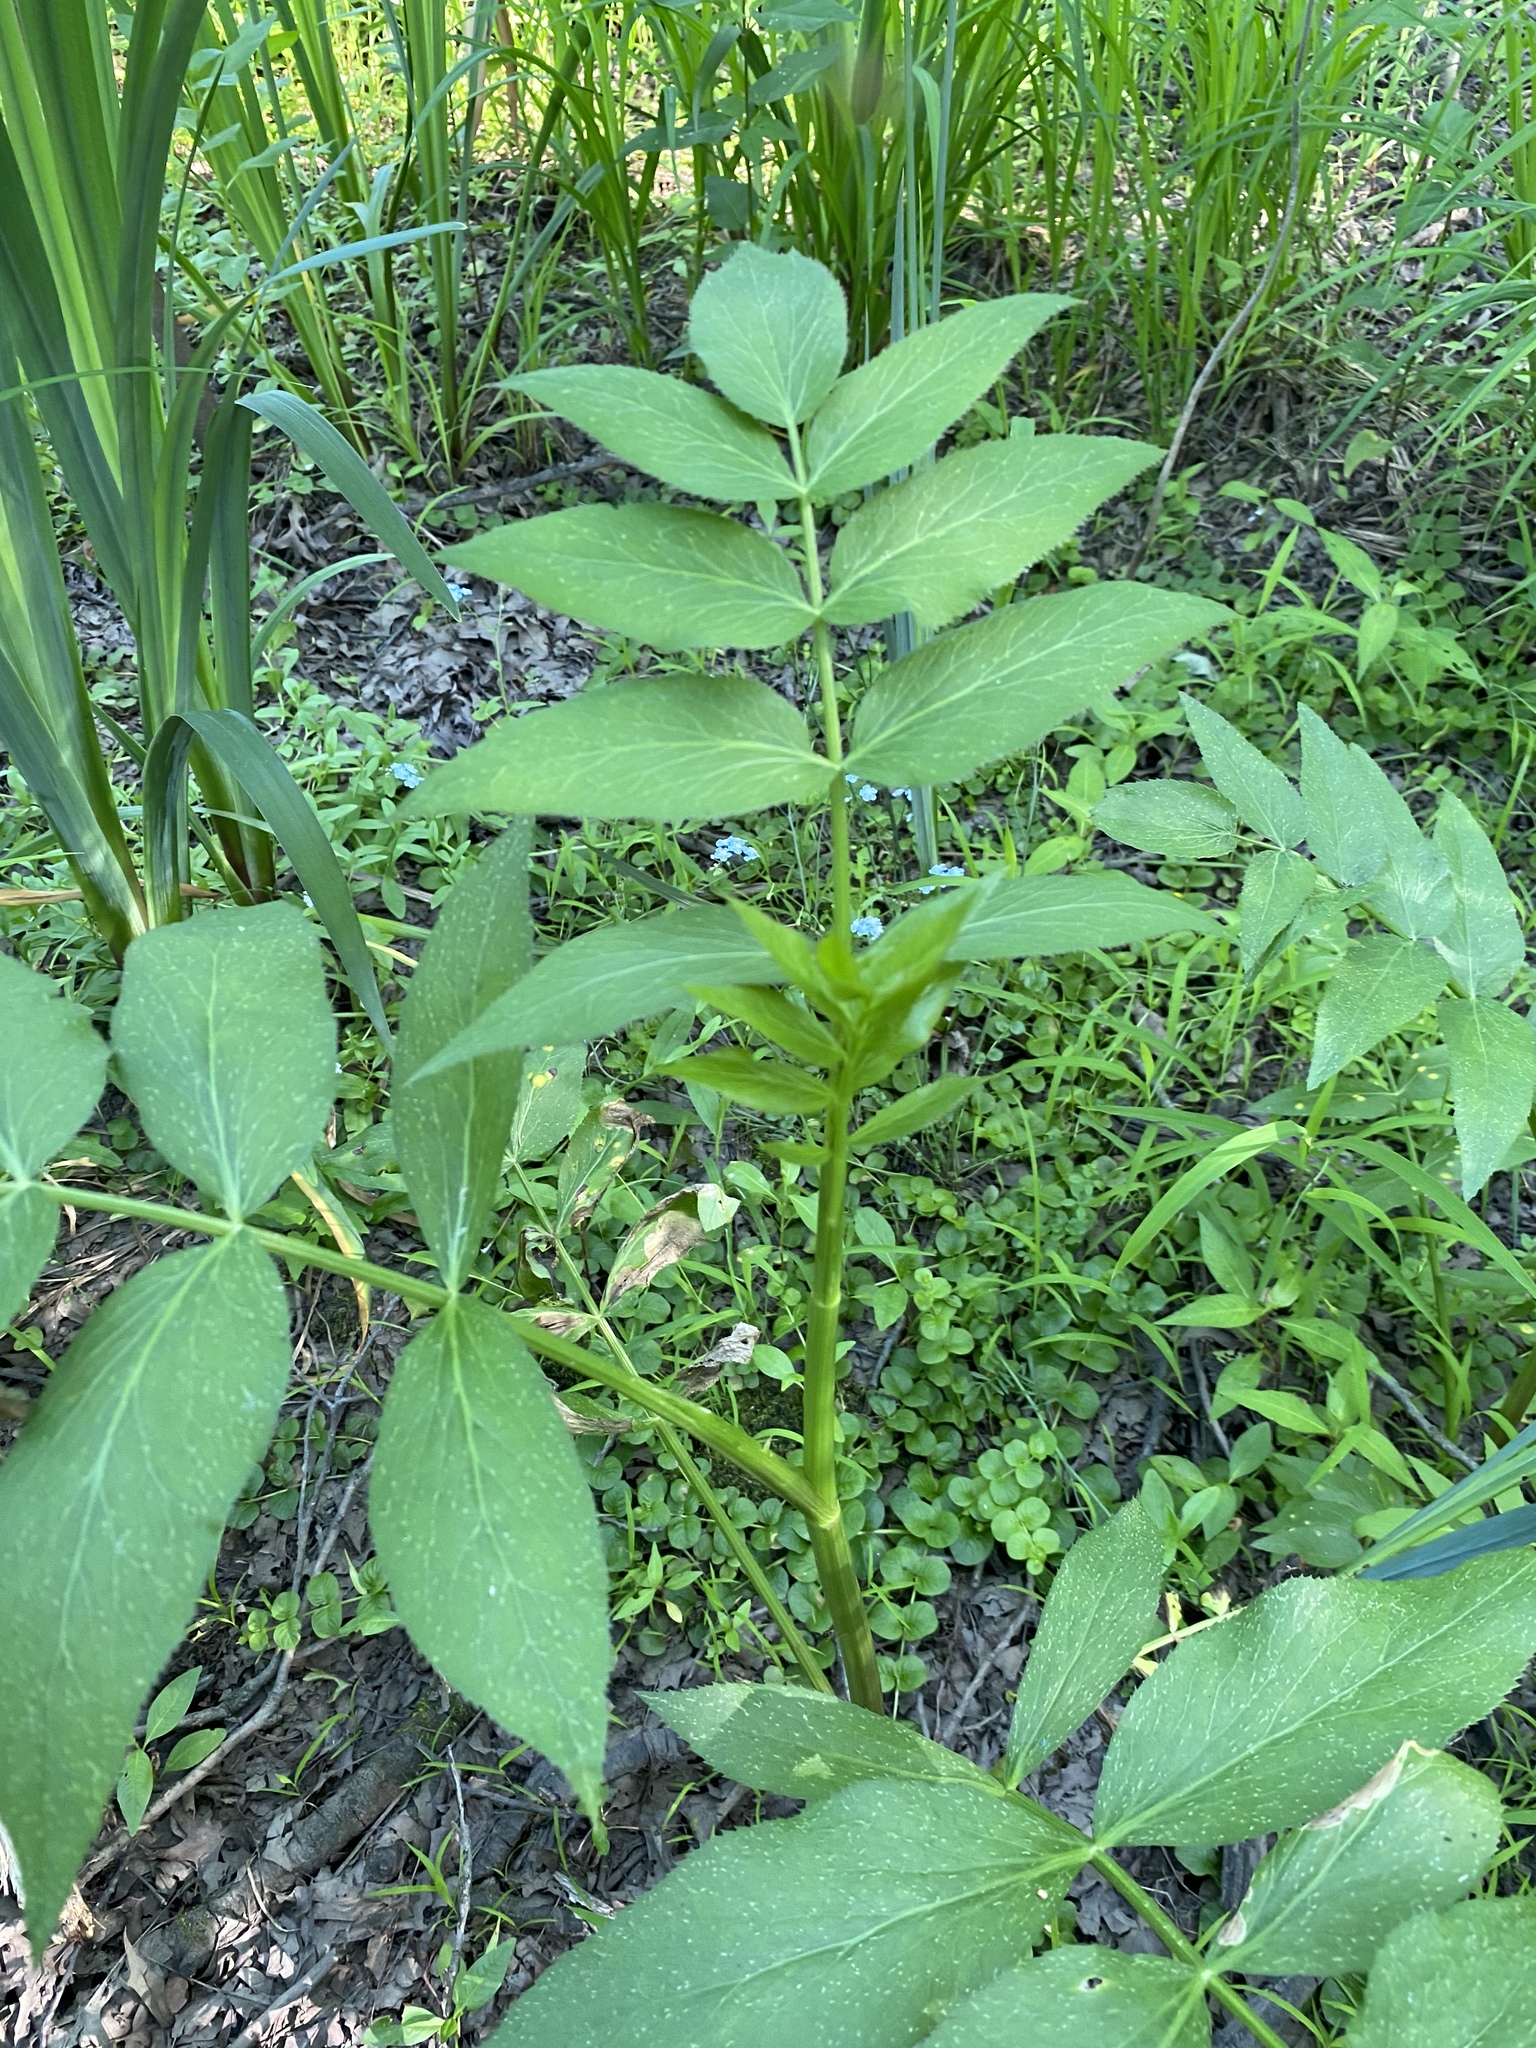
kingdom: Plantae
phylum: Tracheophyta
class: Magnoliopsida
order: Apiales
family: Apiaceae
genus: Sium
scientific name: Sium suave
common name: Hemlock water-parsnip
